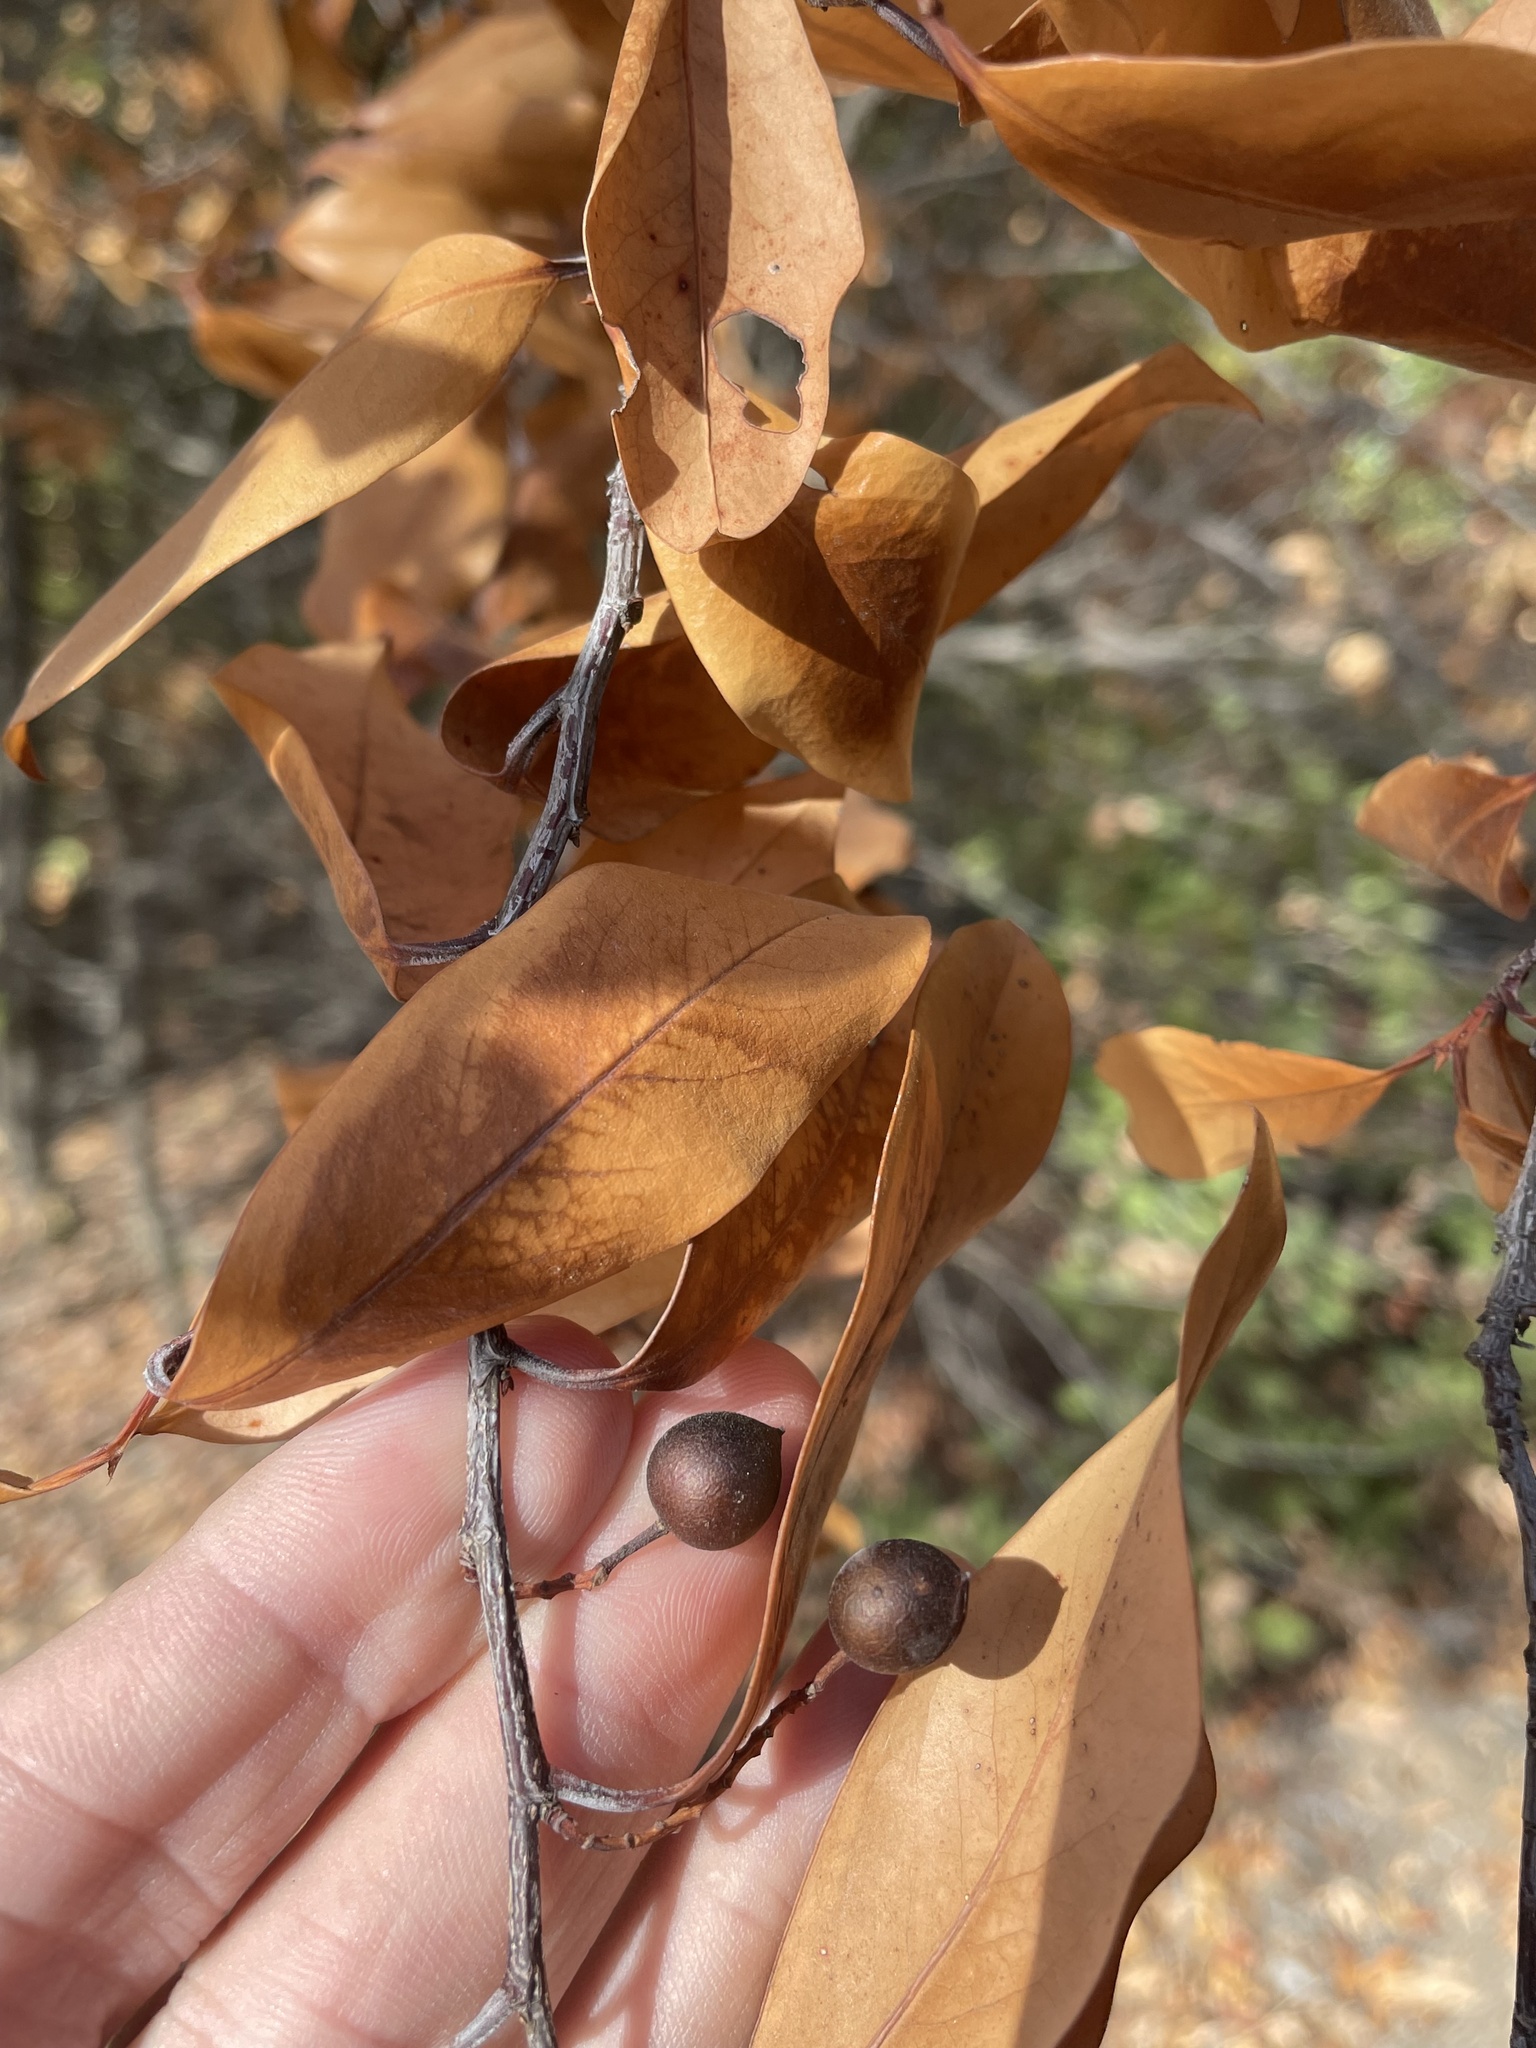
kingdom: Plantae
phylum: Tracheophyta
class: Magnoliopsida
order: Rosales
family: Rosaceae
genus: Prunus
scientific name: Prunus caroliniana
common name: Carolina laurel cherry
